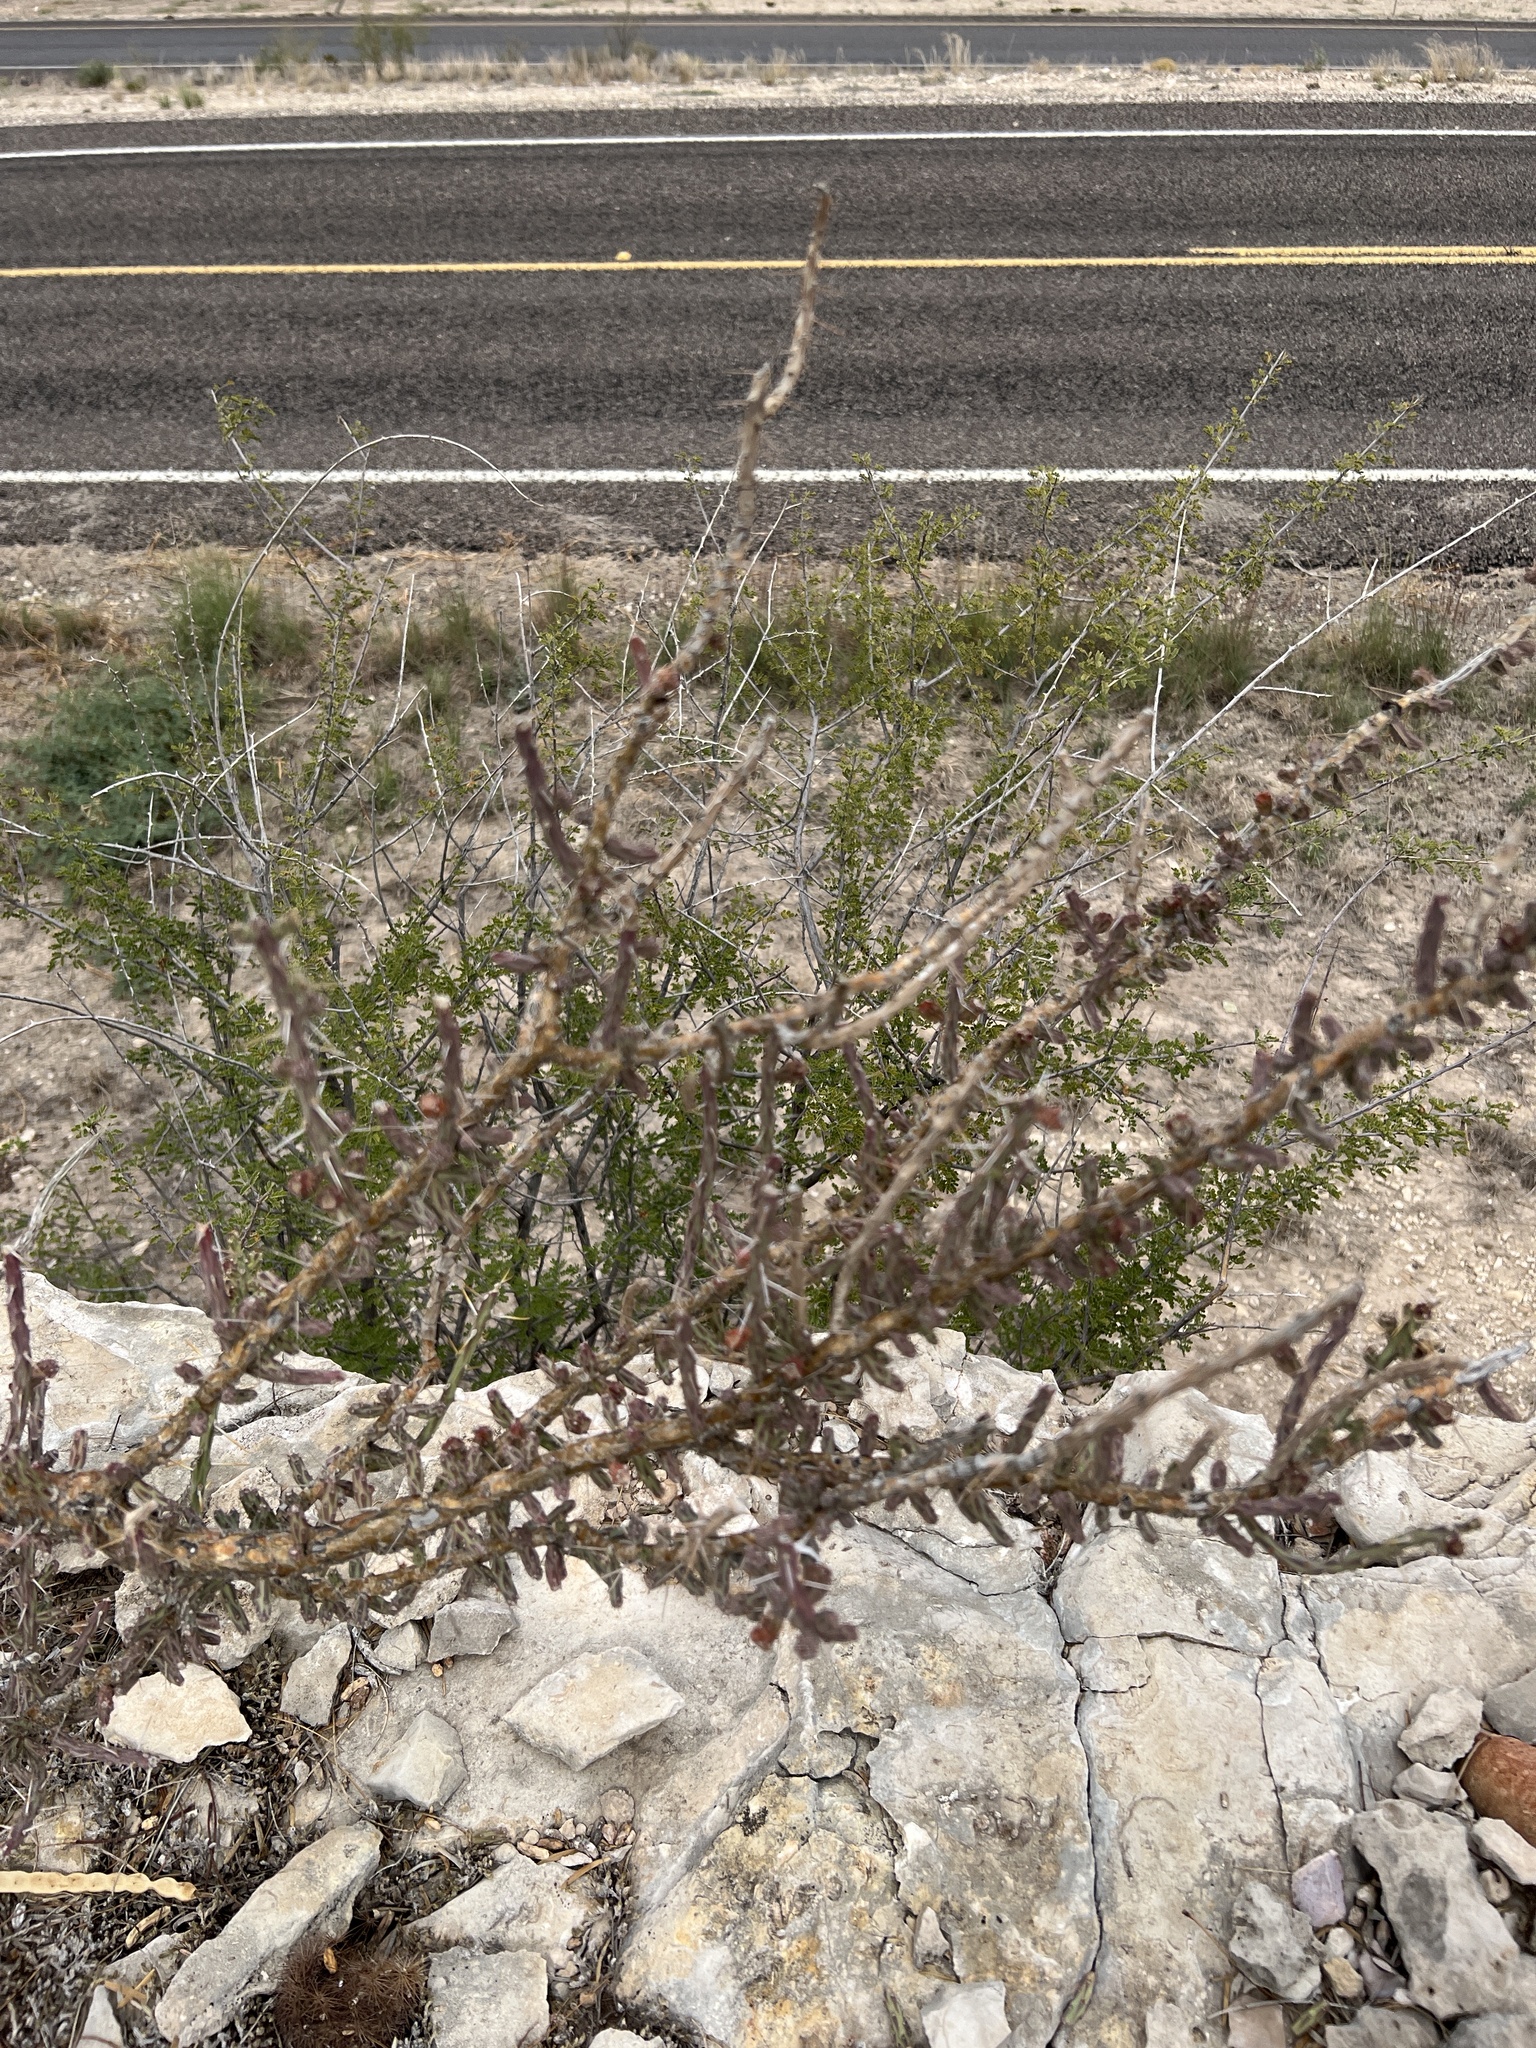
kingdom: Plantae
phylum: Tracheophyta
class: Magnoliopsida
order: Caryophyllales
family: Cactaceae
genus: Cylindropuntia
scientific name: Cylindropuntia leptocaulis
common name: Christmas cactus
